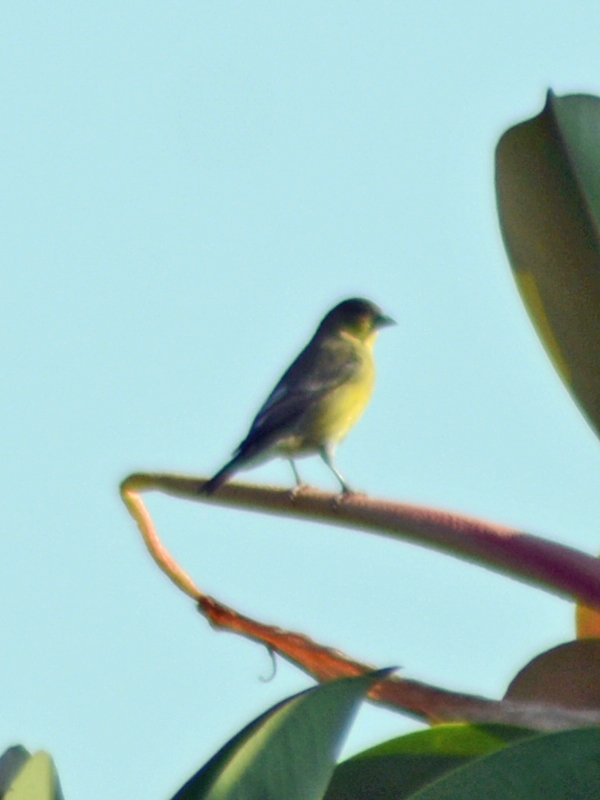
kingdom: Animalia
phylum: Chordata
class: Aves
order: Passeriformes
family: Fringillidae
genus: Spinus
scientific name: Spinus psaltria
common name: Lesser goldfinch
